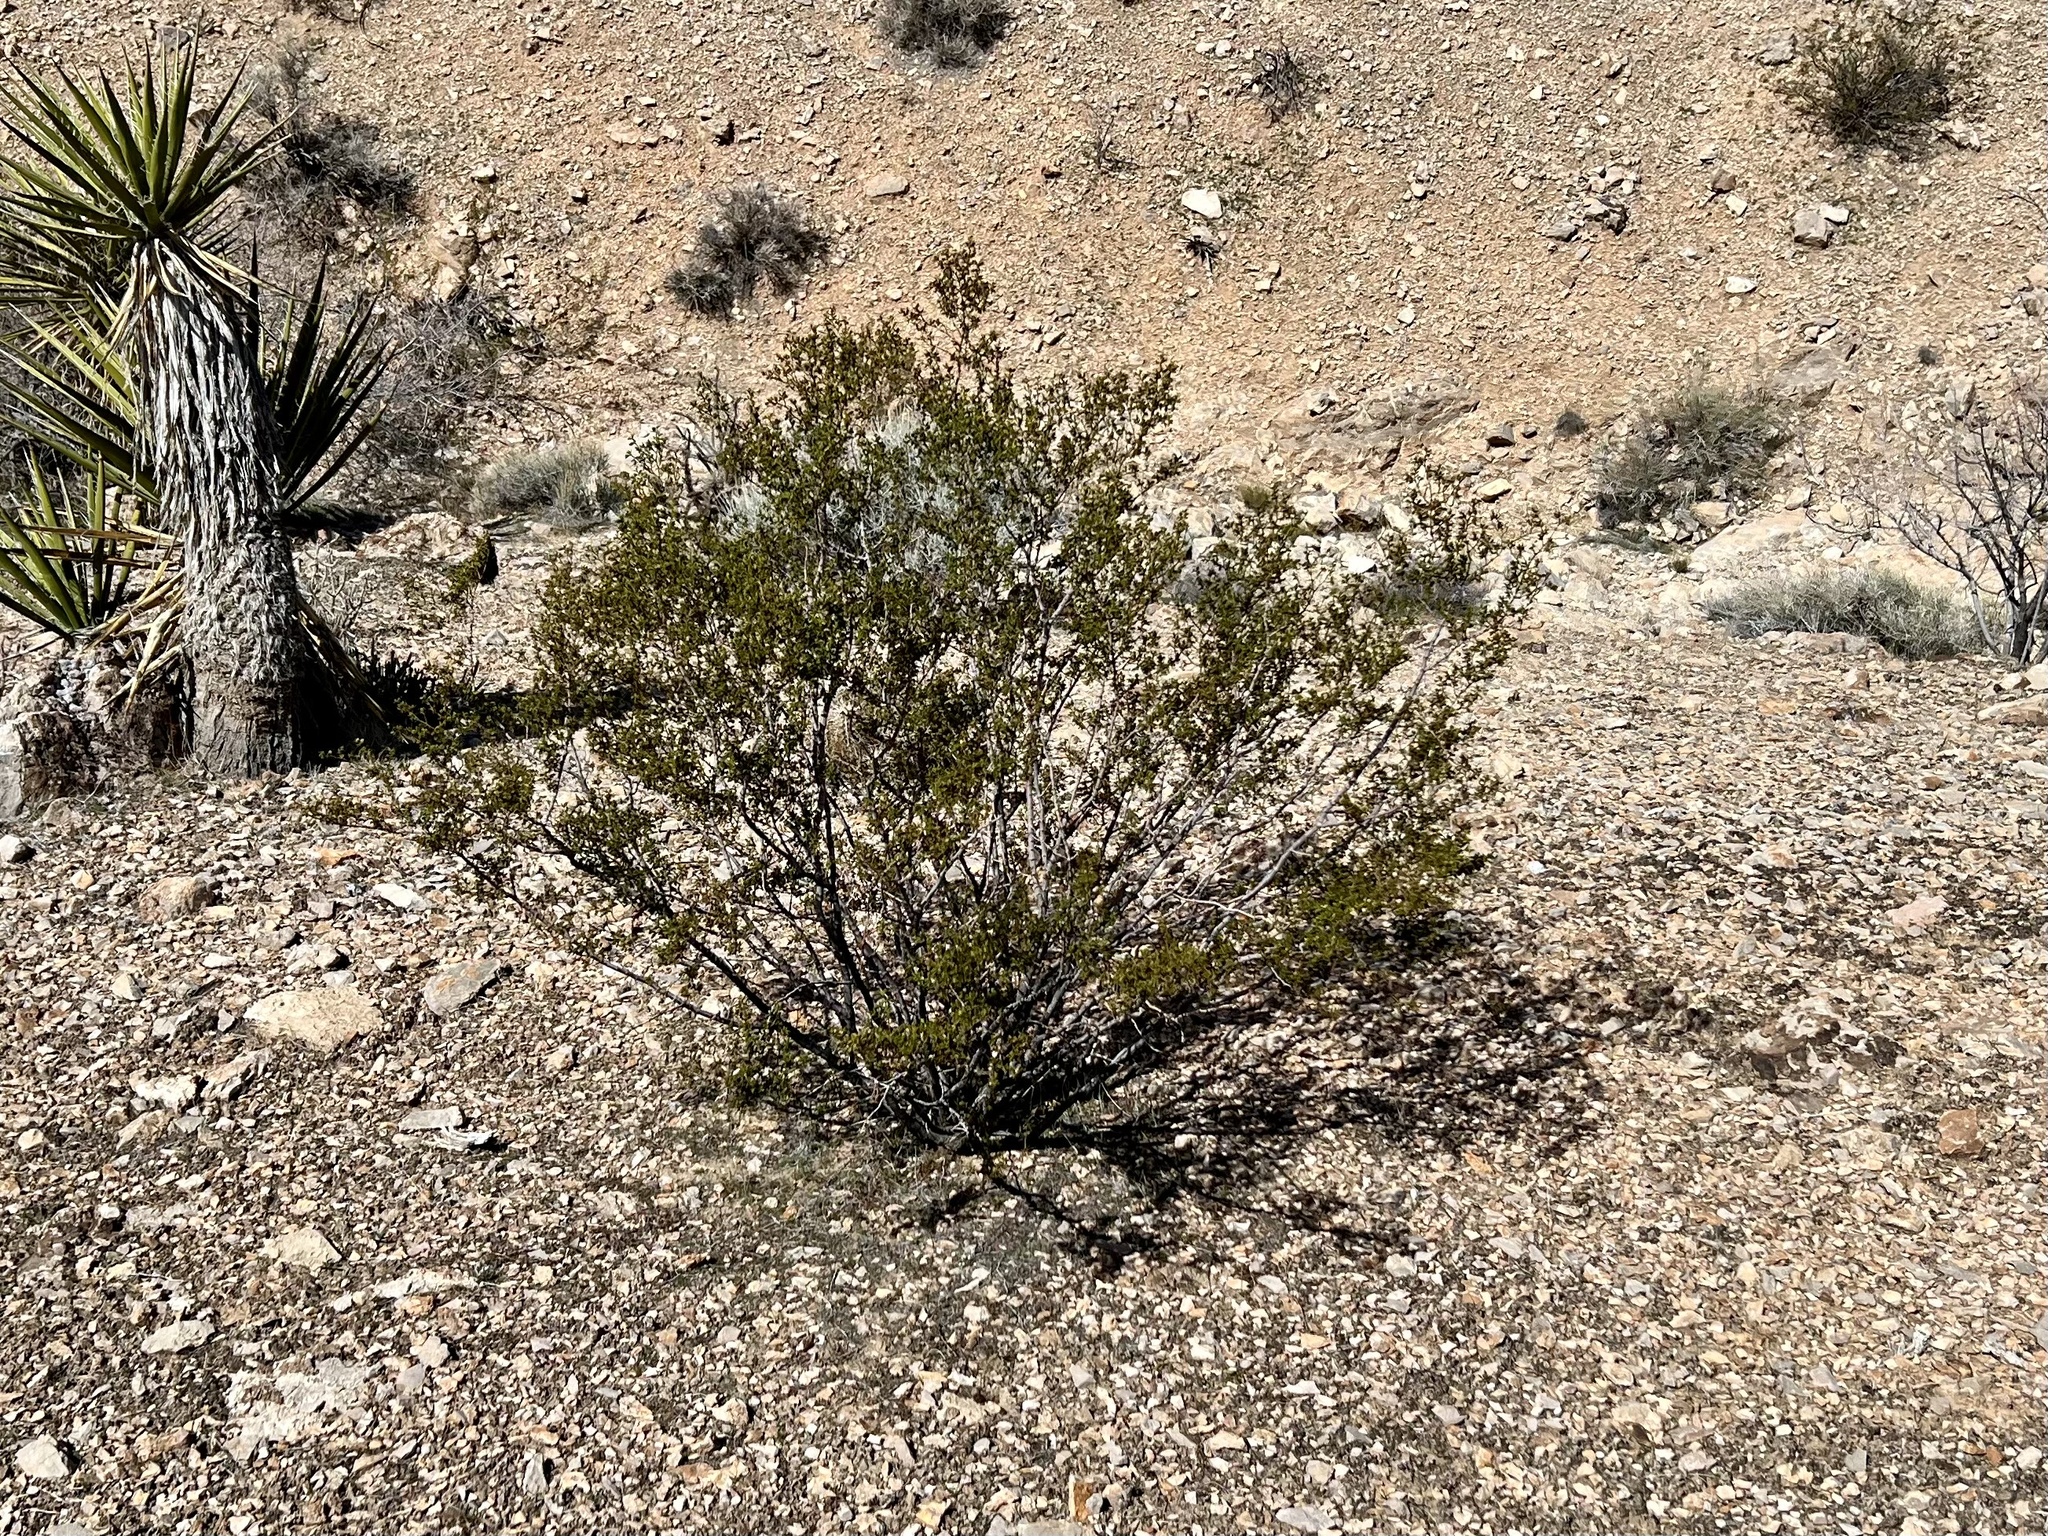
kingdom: Plantae
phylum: Tracheophyta
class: Magnoliopsida
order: Zygophyllales
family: Zygophyllaceae
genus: Larrea
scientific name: Larrea tridentata
